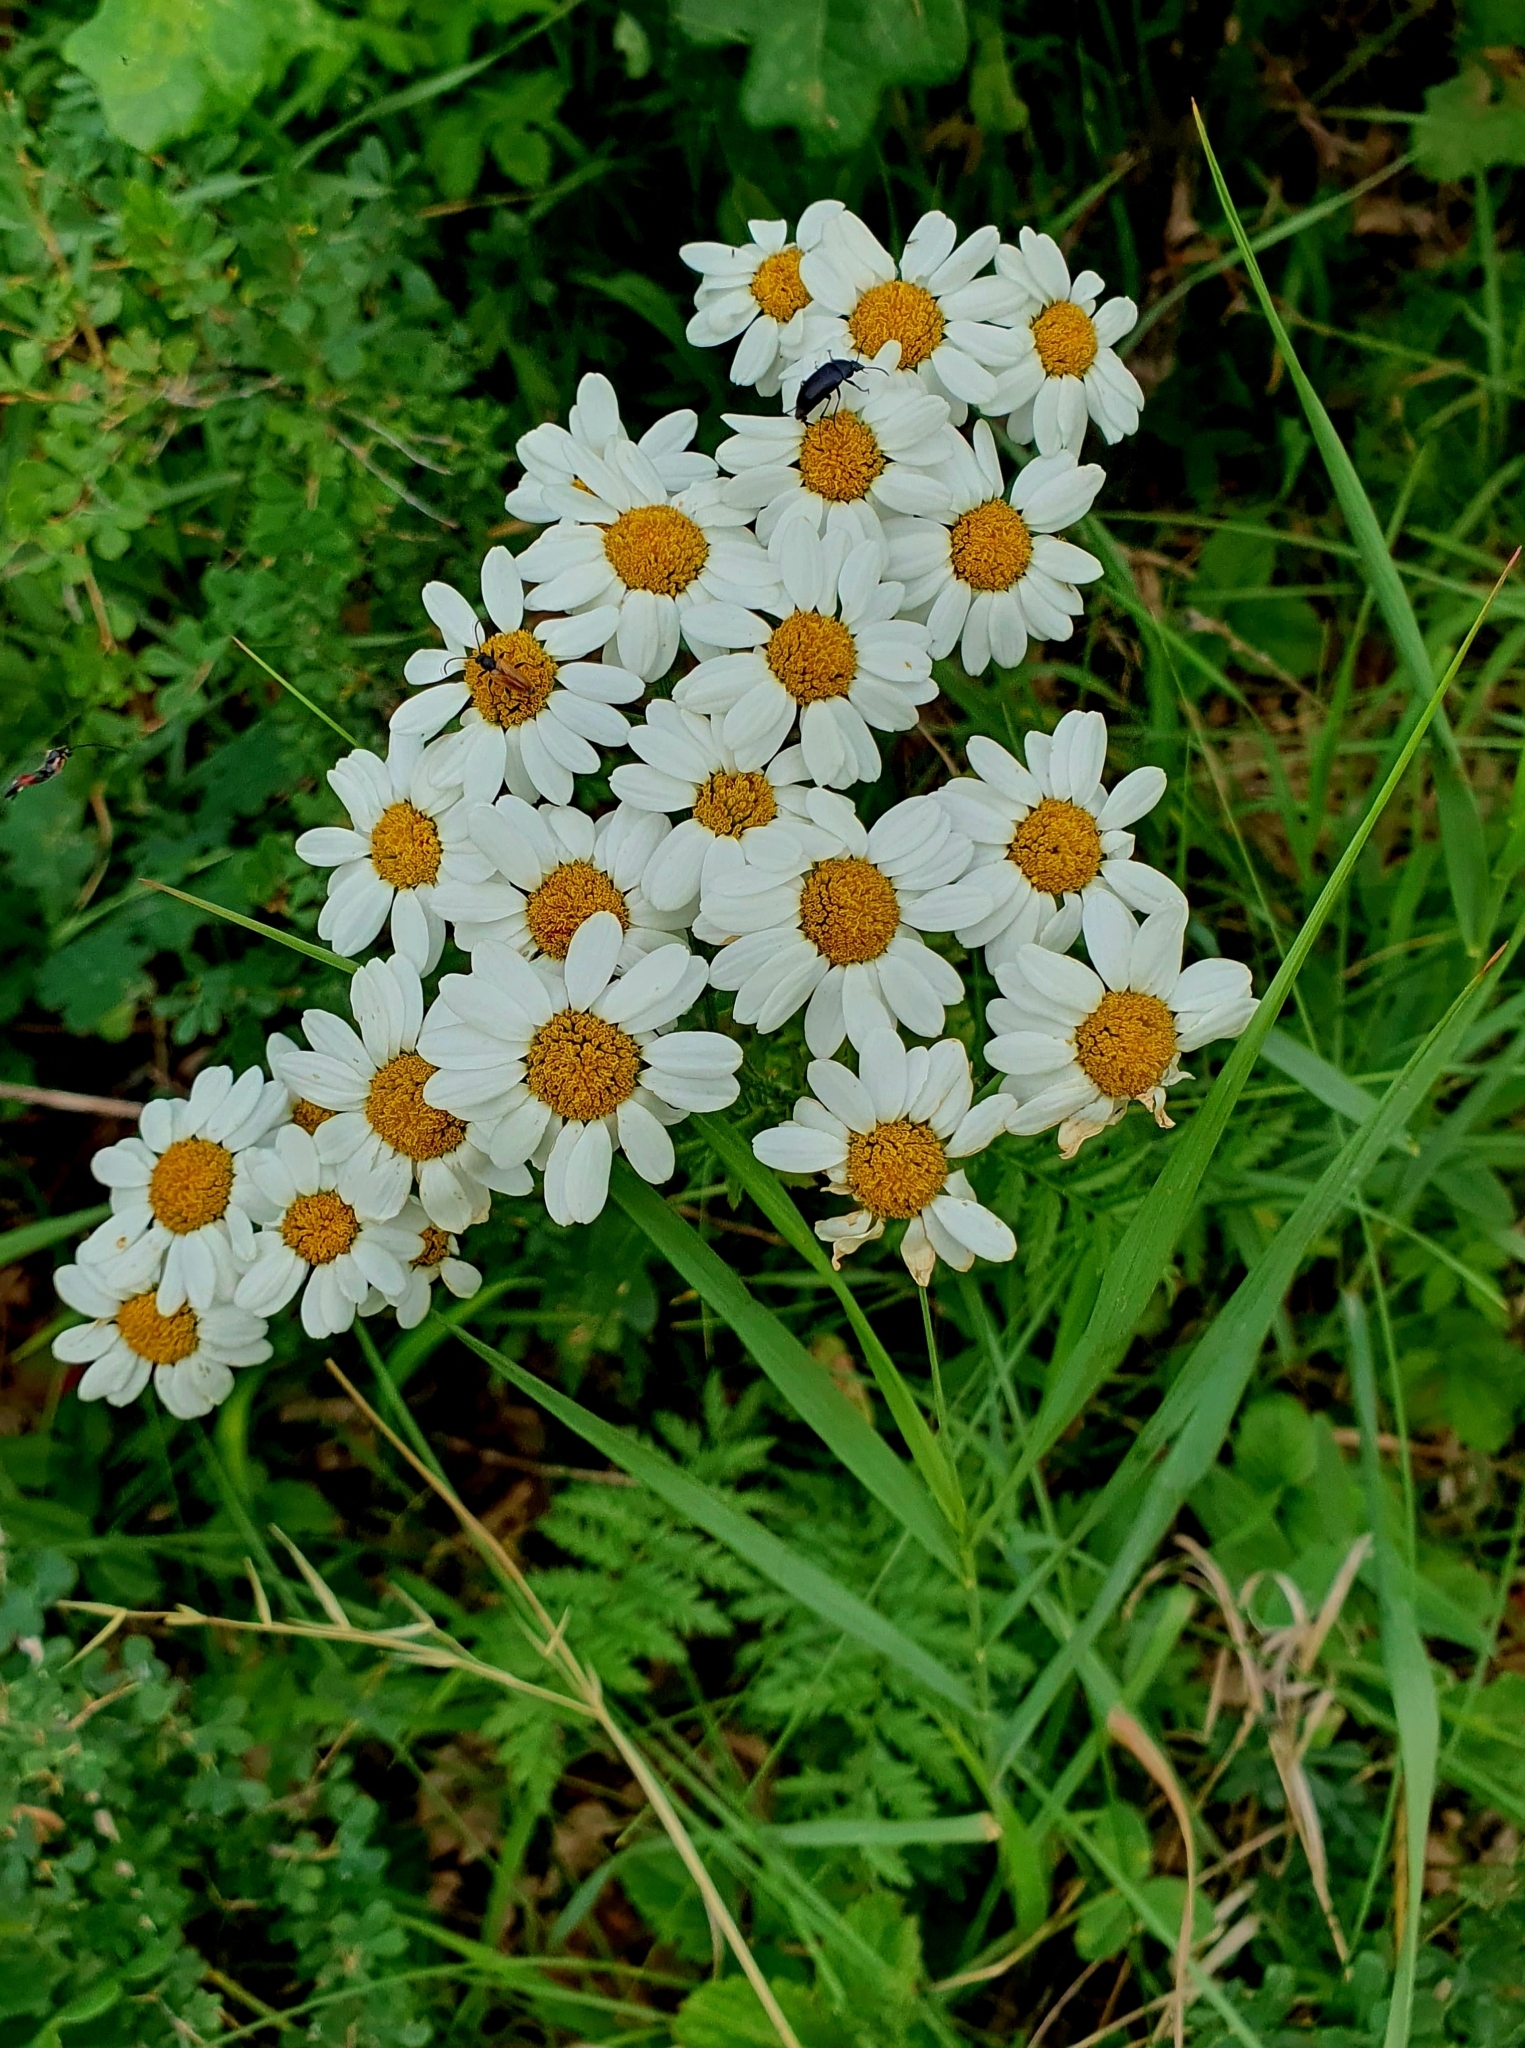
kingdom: Plantae
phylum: Tracheophyta
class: Magnoliopsida
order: Asterales
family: Asteraceae
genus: Tanacetum
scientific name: Tanacetum corymbosum
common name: Scentless feverfew
